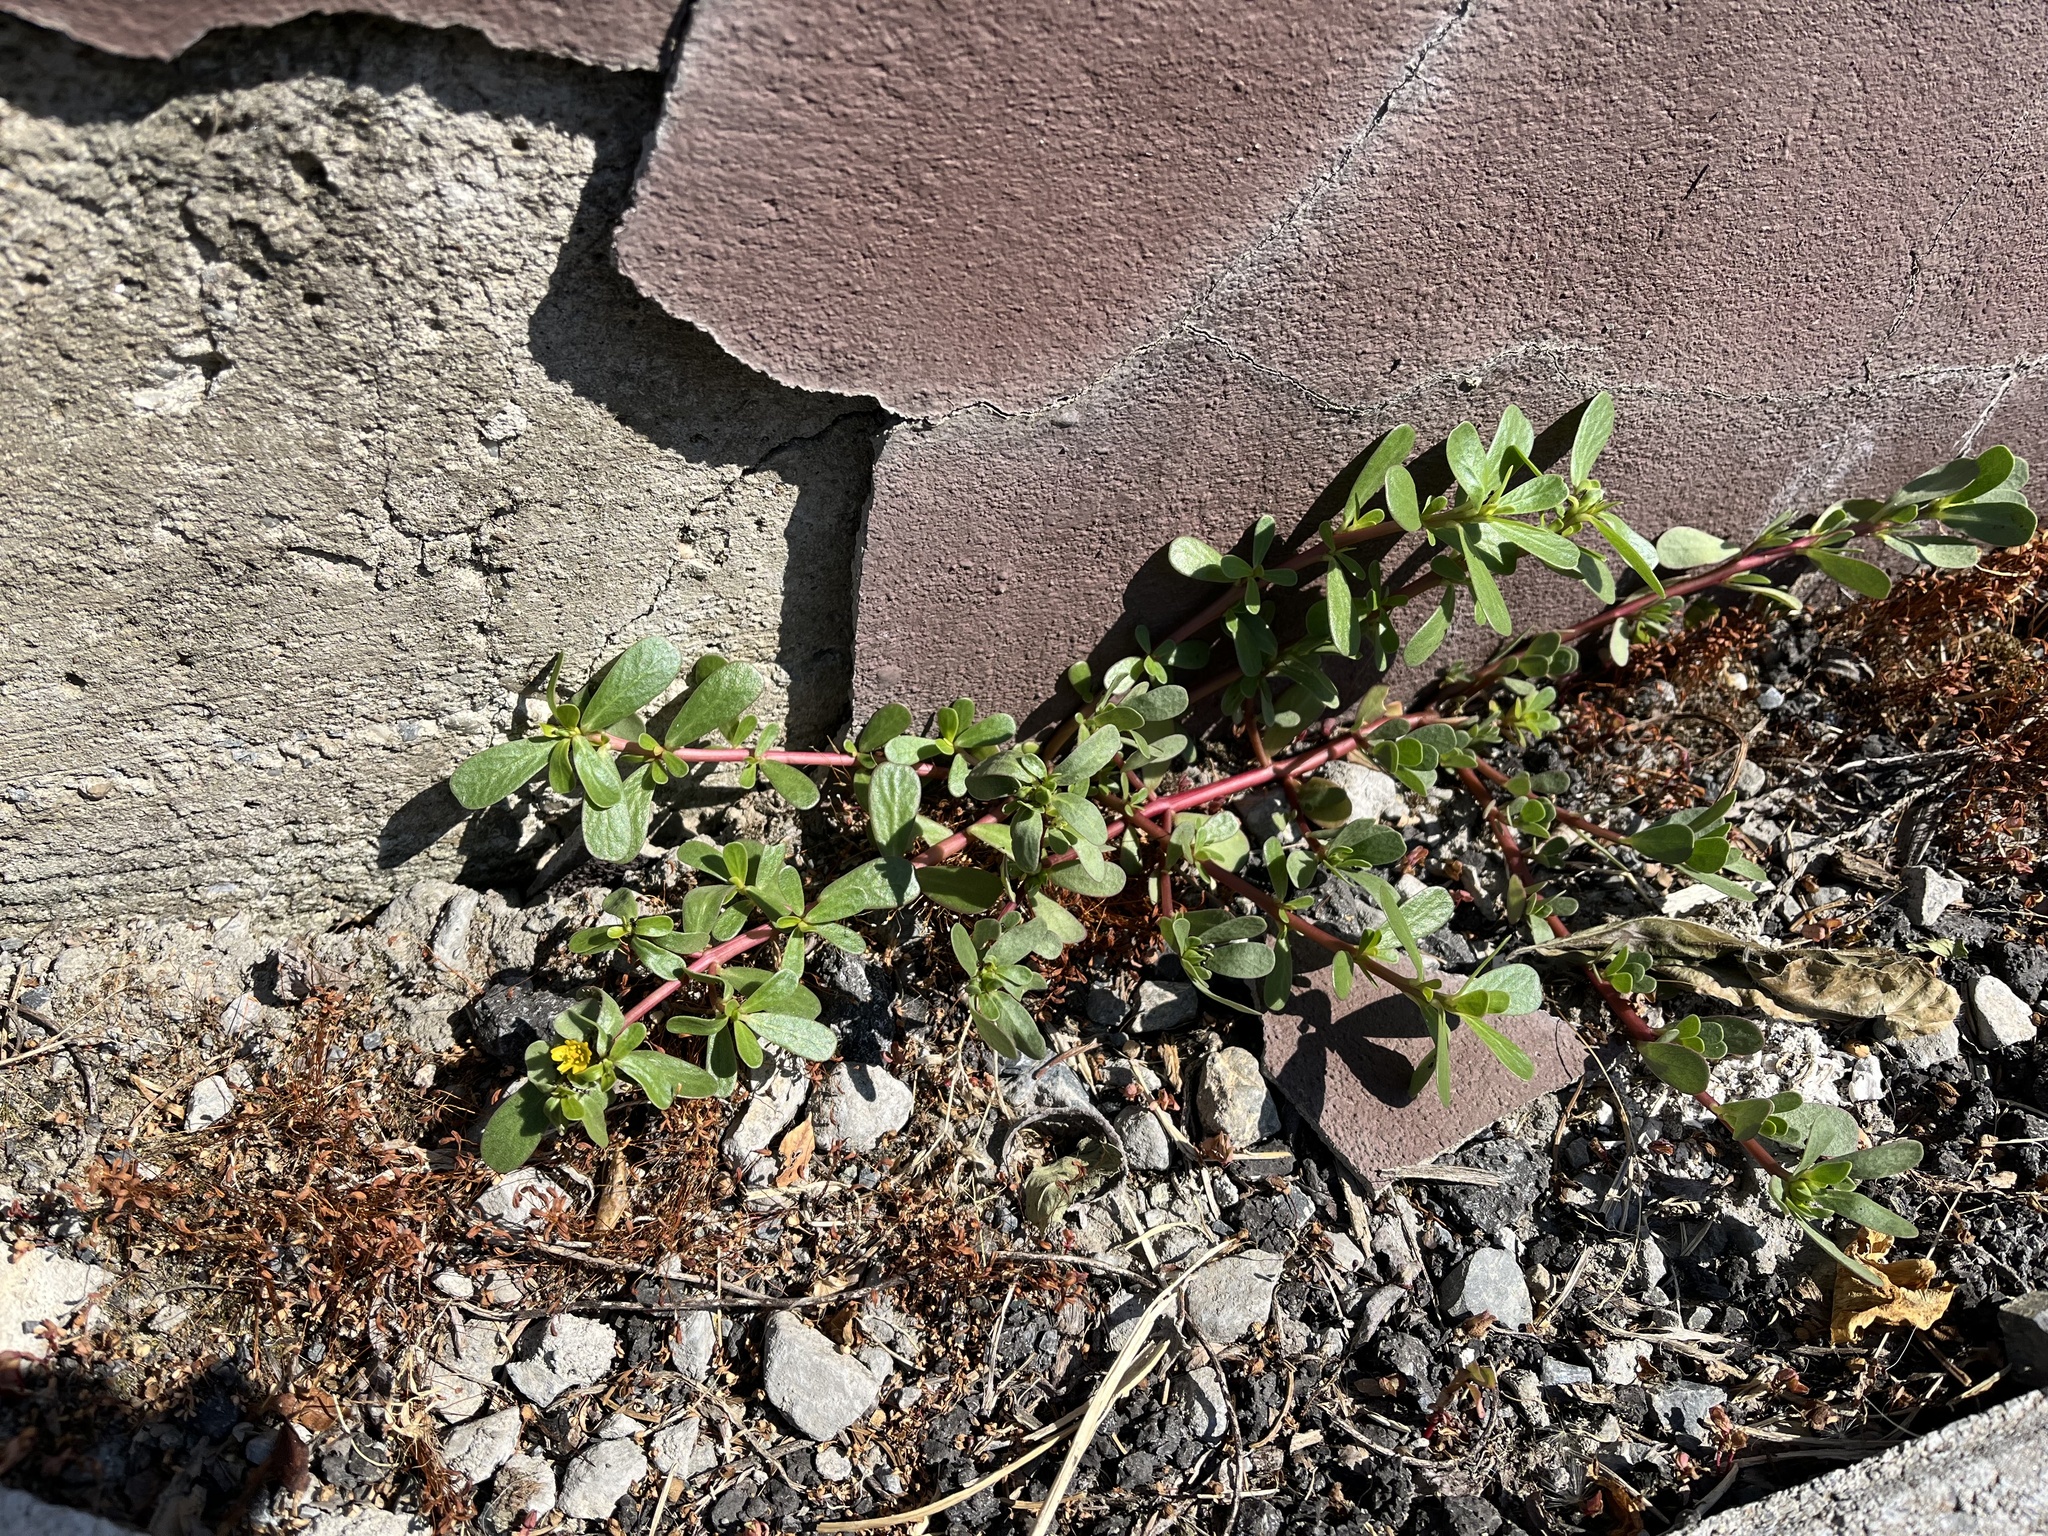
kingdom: Plantae
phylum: Tracheophyta
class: Magnoliopsida
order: Caryophyllales
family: Portulacaceae
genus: Portulaca
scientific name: Portulaca oleracea
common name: Common purslane
